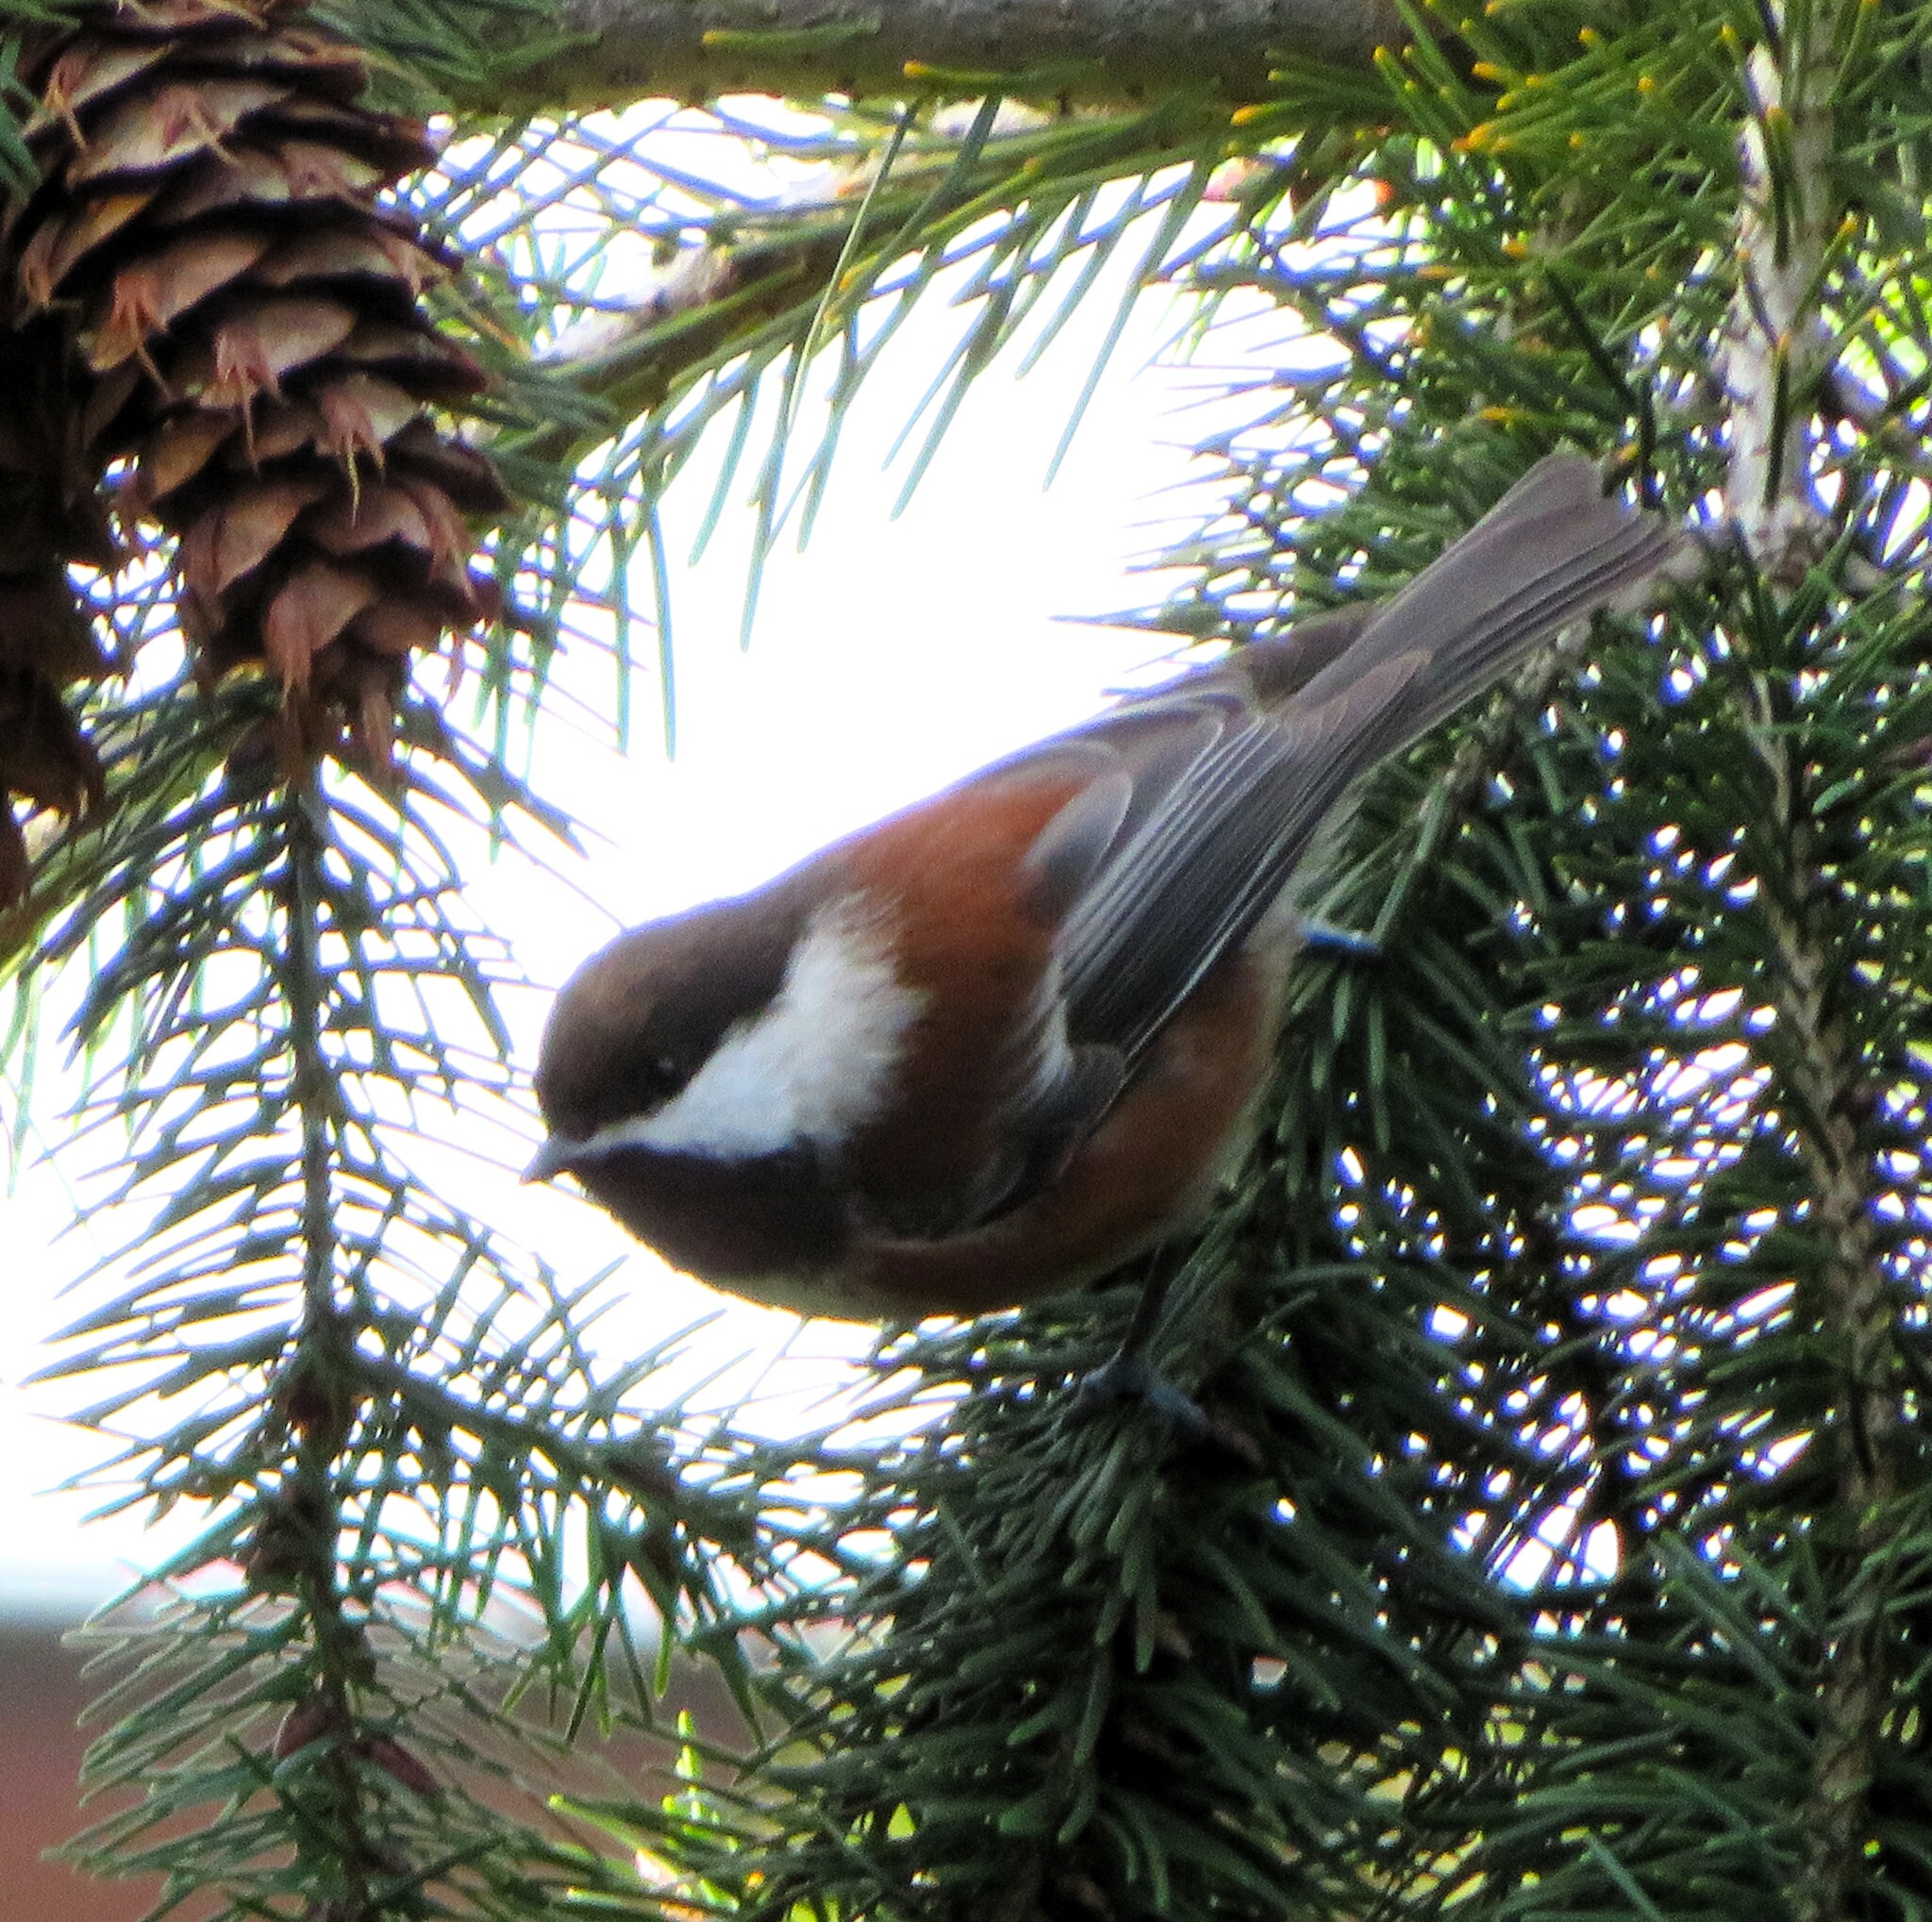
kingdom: Animalia
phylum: Chordata
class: Aves
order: Passeriformes
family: Paridae
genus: Poecile
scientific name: Poecile rufescens
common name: Chestnut-backed chickadee
